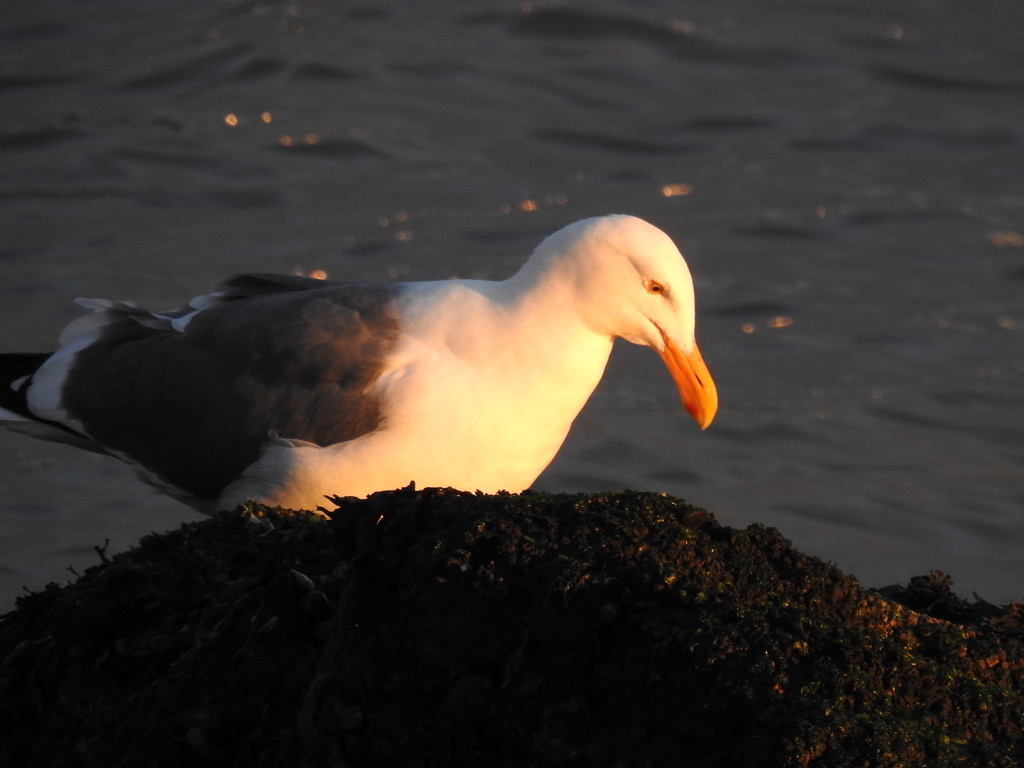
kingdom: Animalia
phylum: Chordata
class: Aves
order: Charadriiformes
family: Laridae
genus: Larus
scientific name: Larus occidentalis
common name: Western gull
